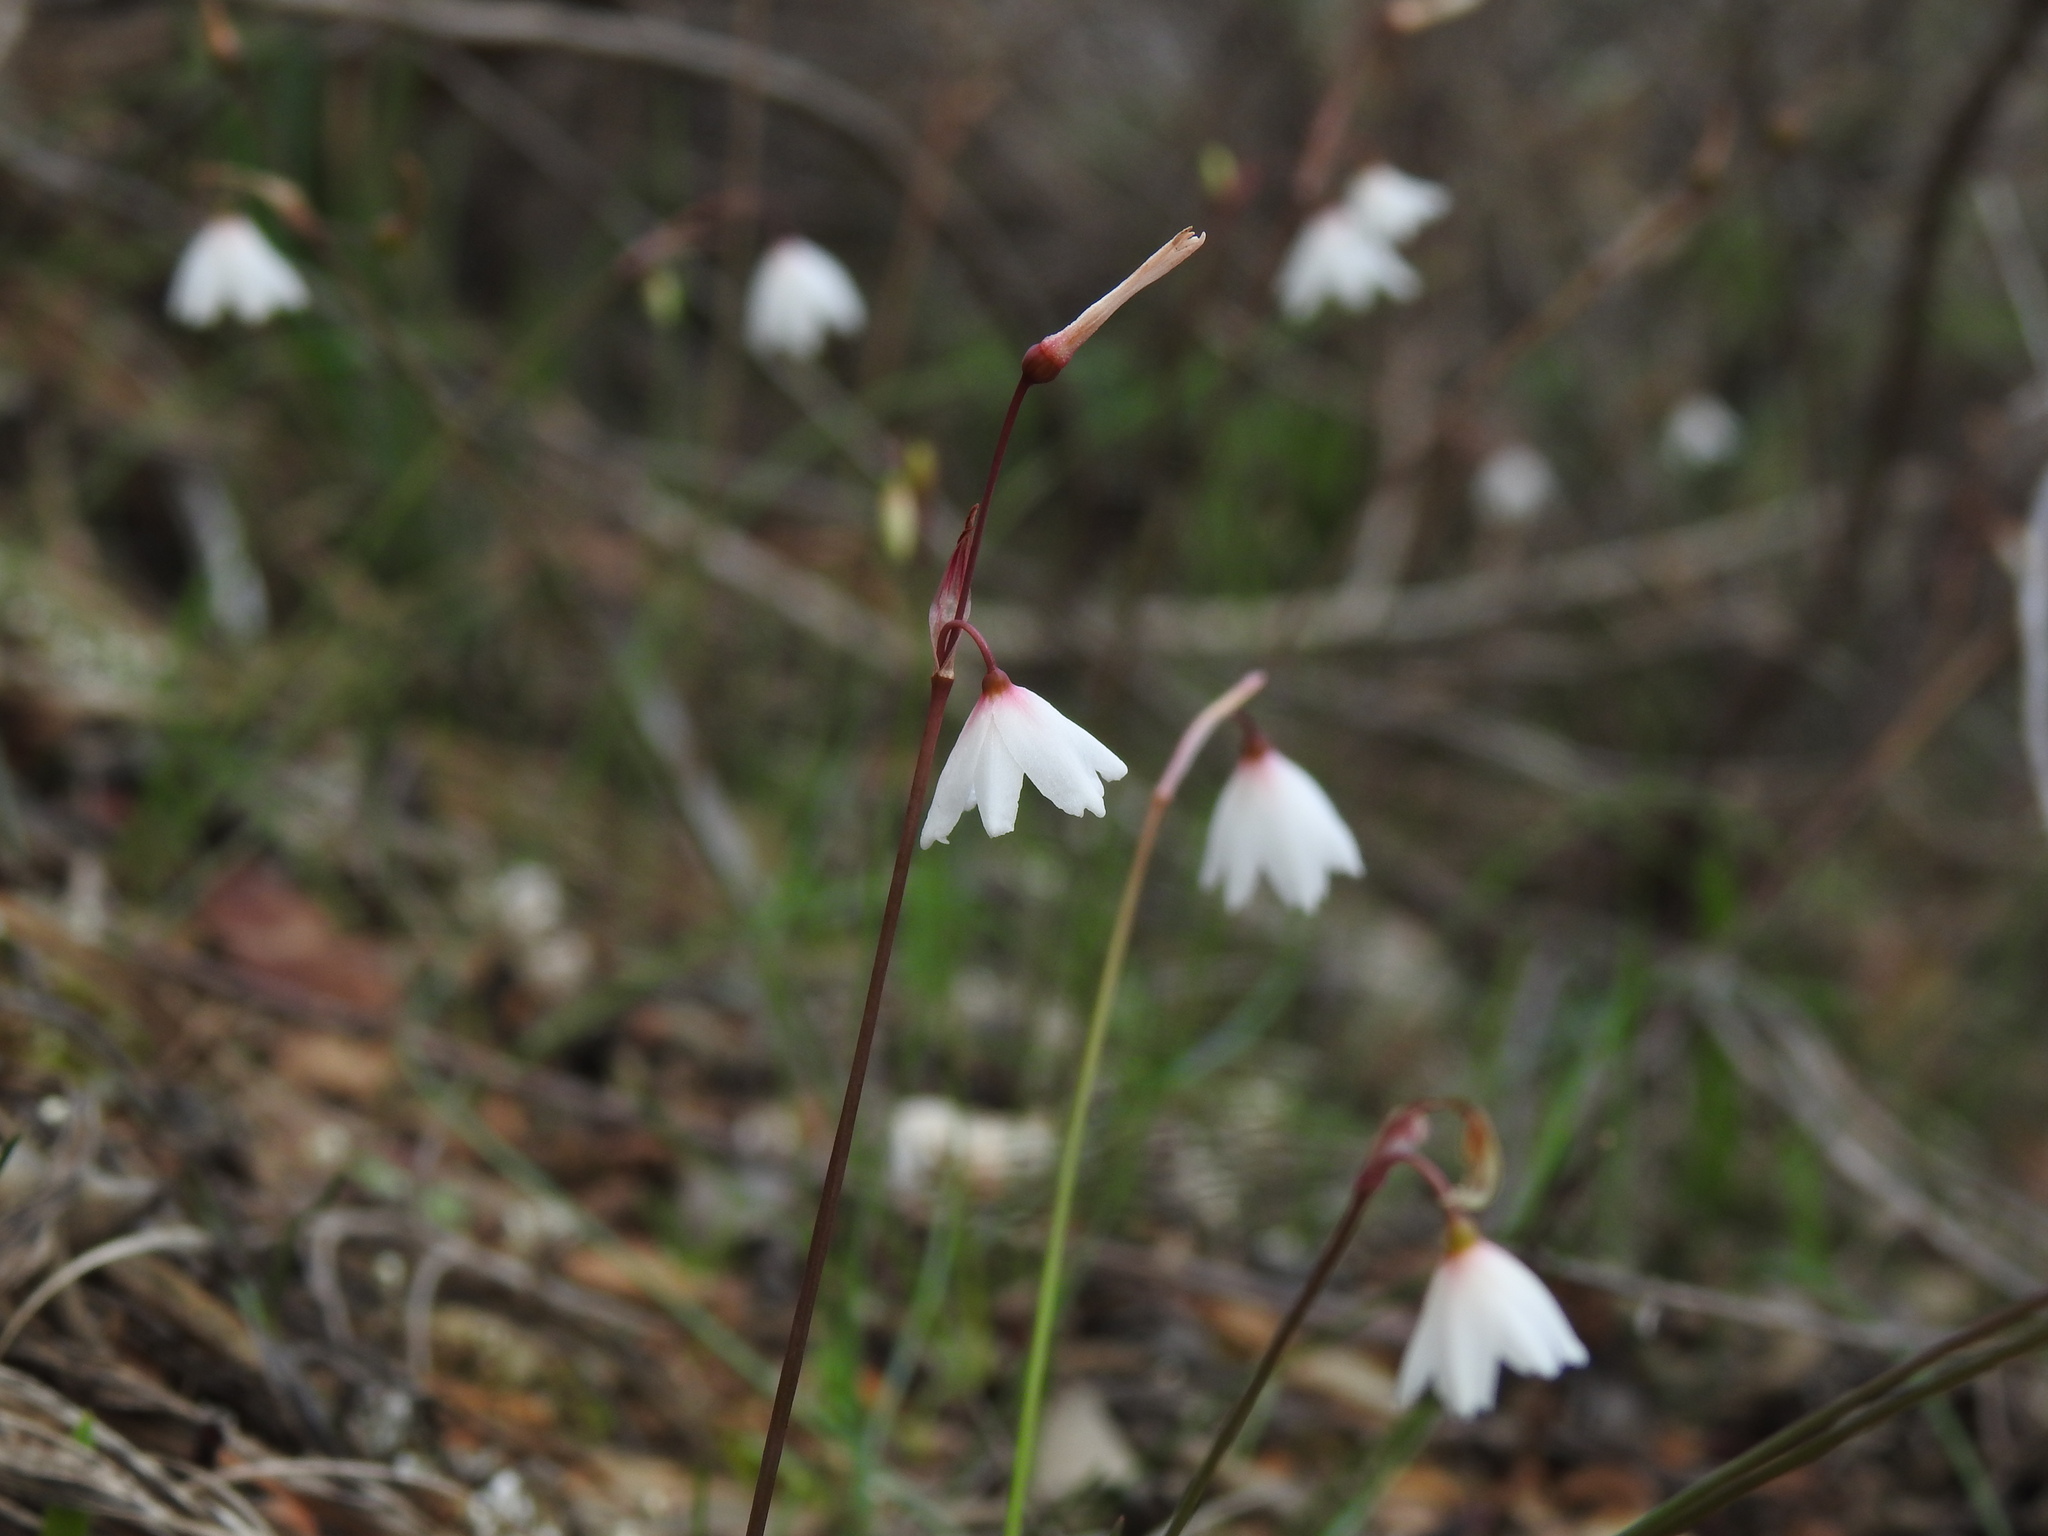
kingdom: Plantae
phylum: Tracheophyta
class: Liliopsida
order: Asparagales
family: Amaryllidaceae
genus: Acis
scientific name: Acis autumnalis
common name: Autumn snowflake
